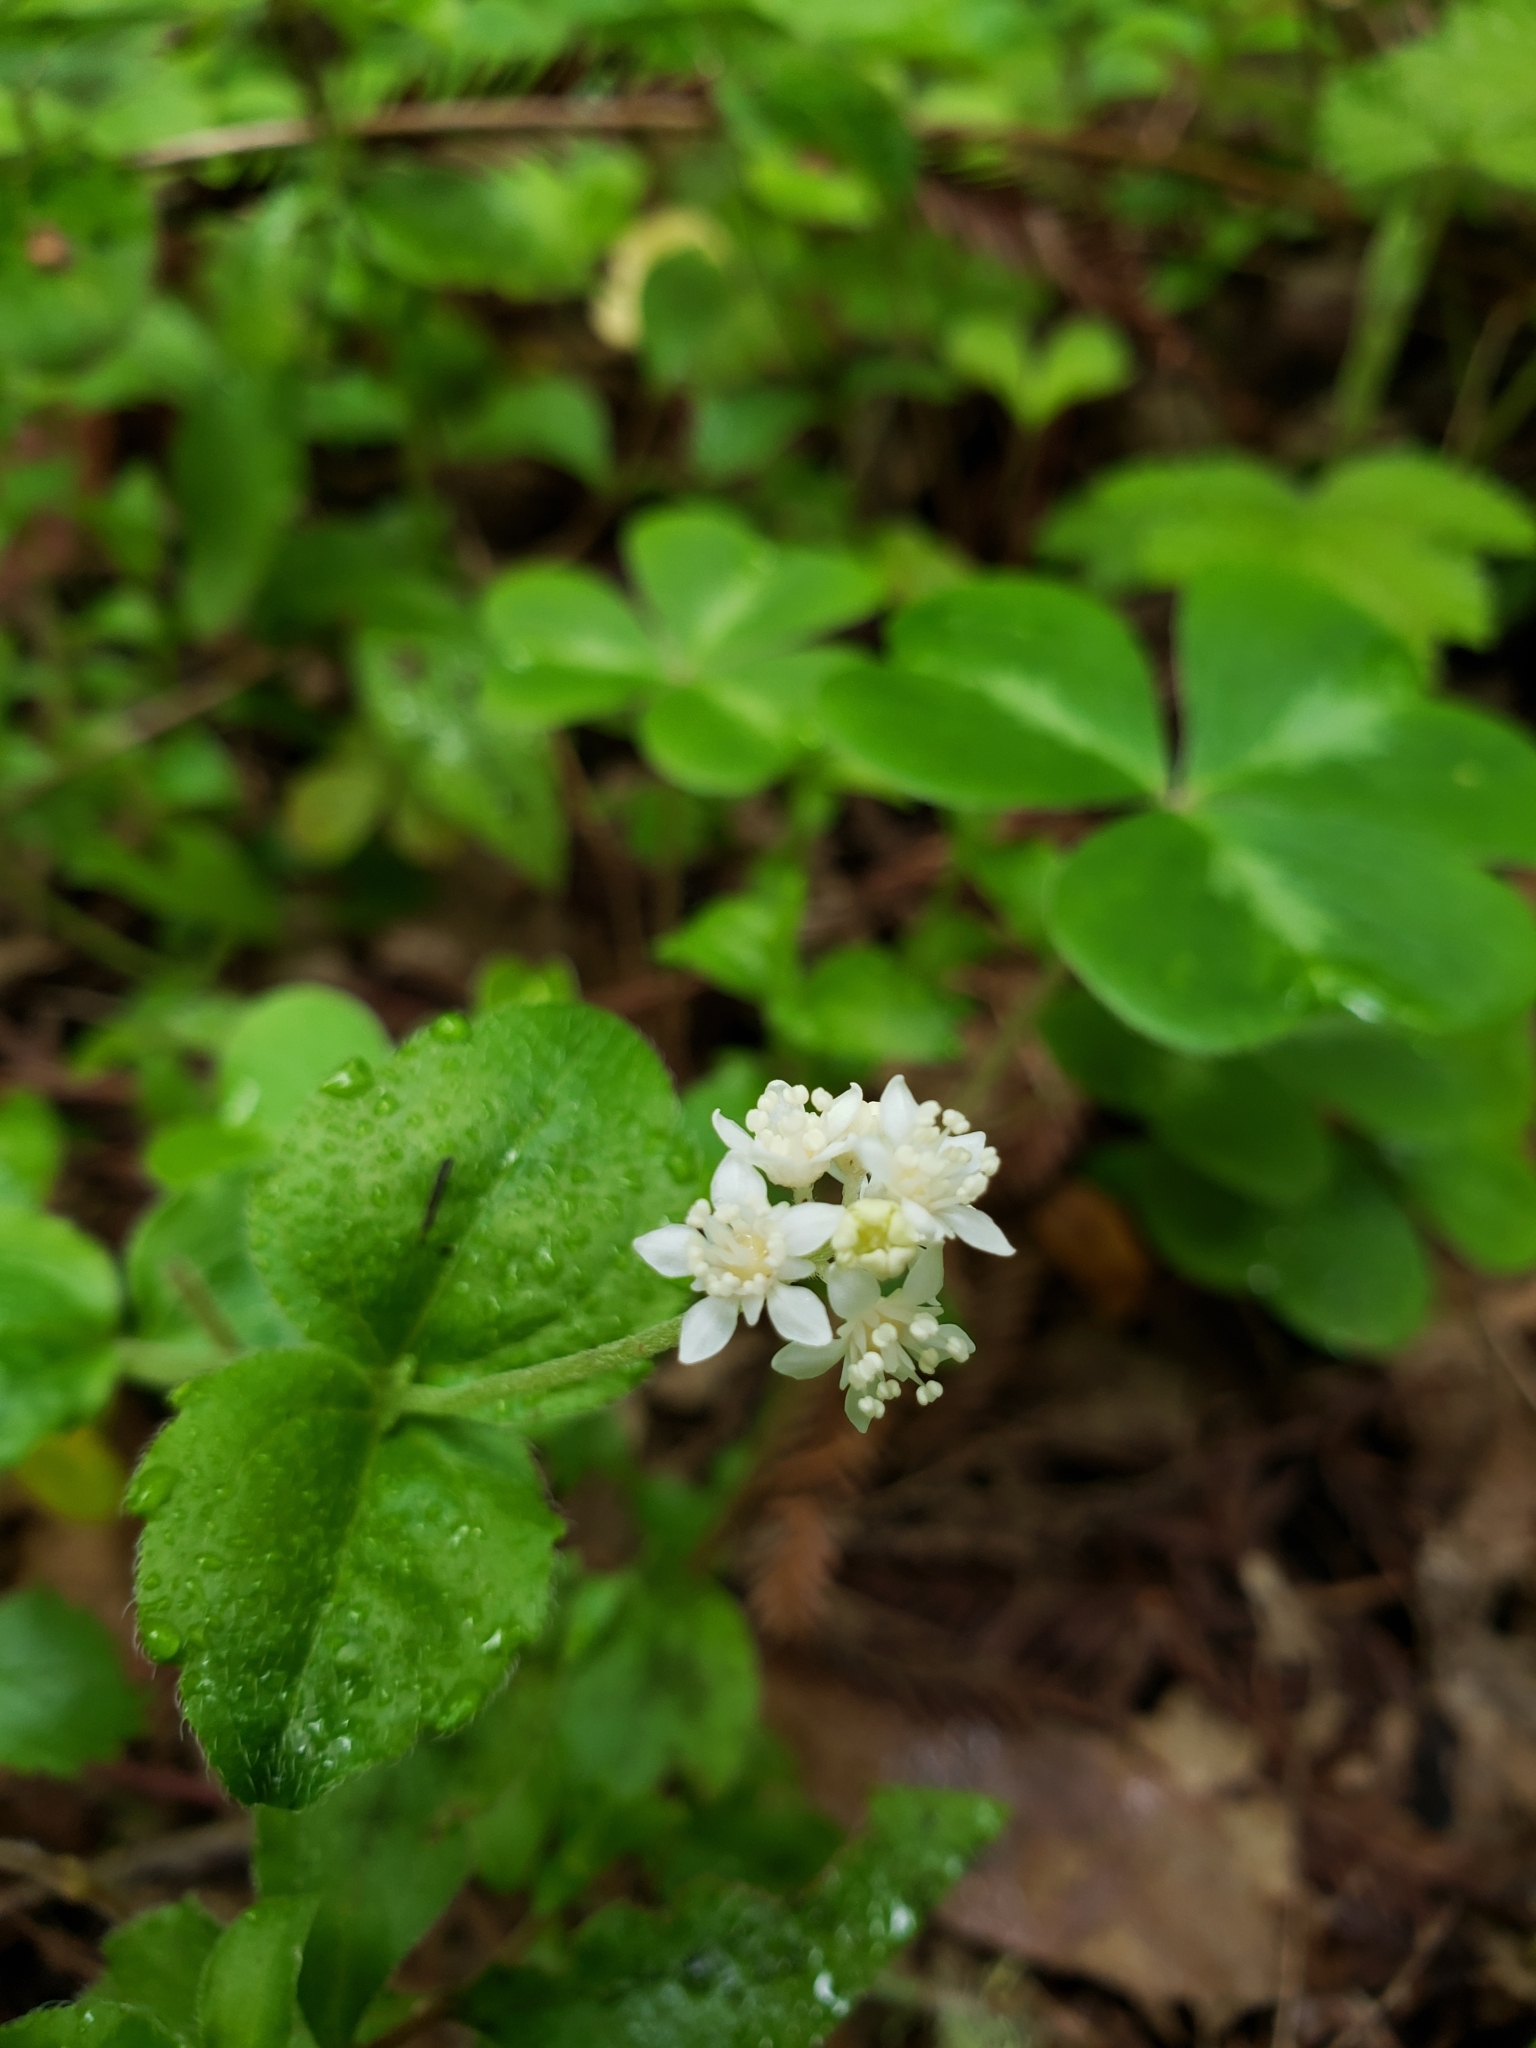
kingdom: Plantae
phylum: Tracheophyta
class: Magnoliopsida
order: Cornales
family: Hydrangeaceae
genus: Whipplea
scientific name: Whipplea modesta
